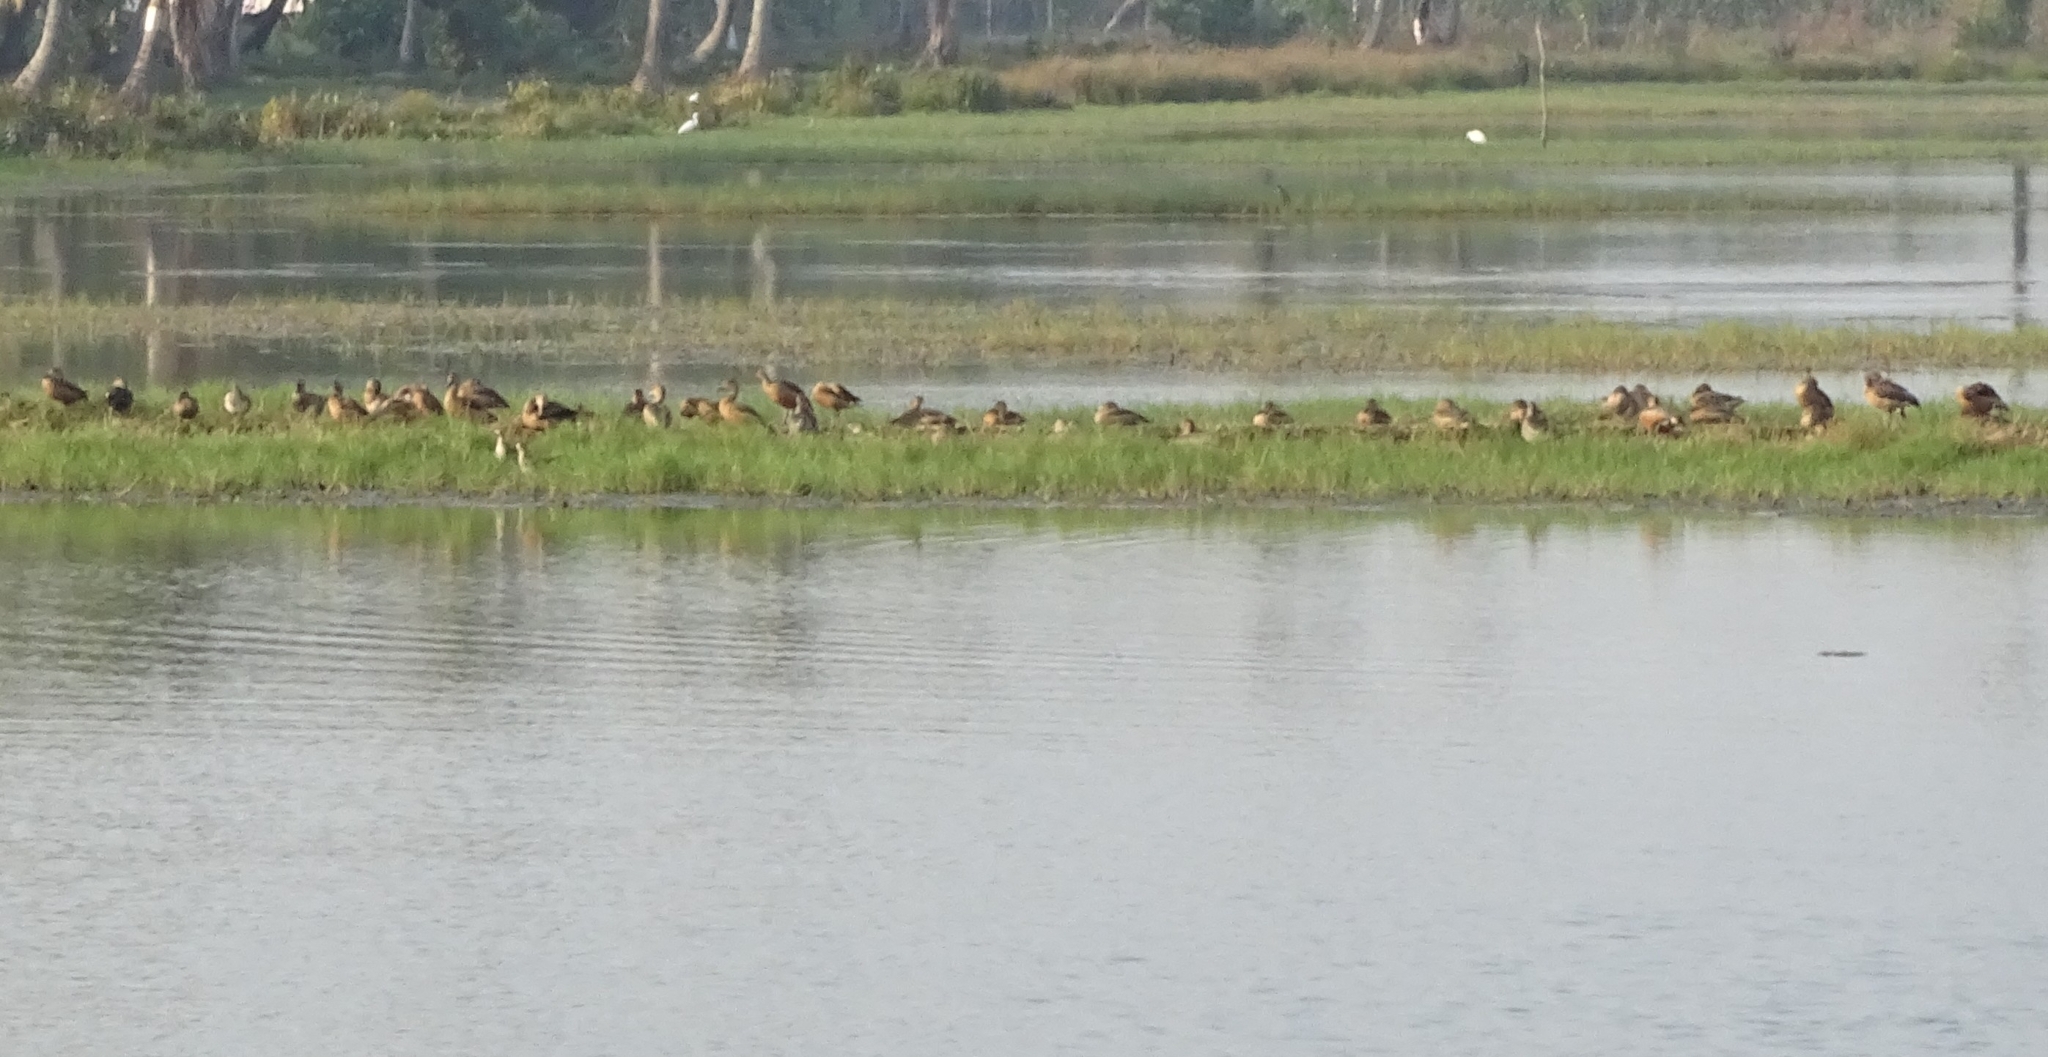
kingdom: Animalia
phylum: Chordata
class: Aves
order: Anseriformes
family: Anatidae
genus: Dendrocygna
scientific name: Dendrocygna javanica
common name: Lesser whistling-duck
